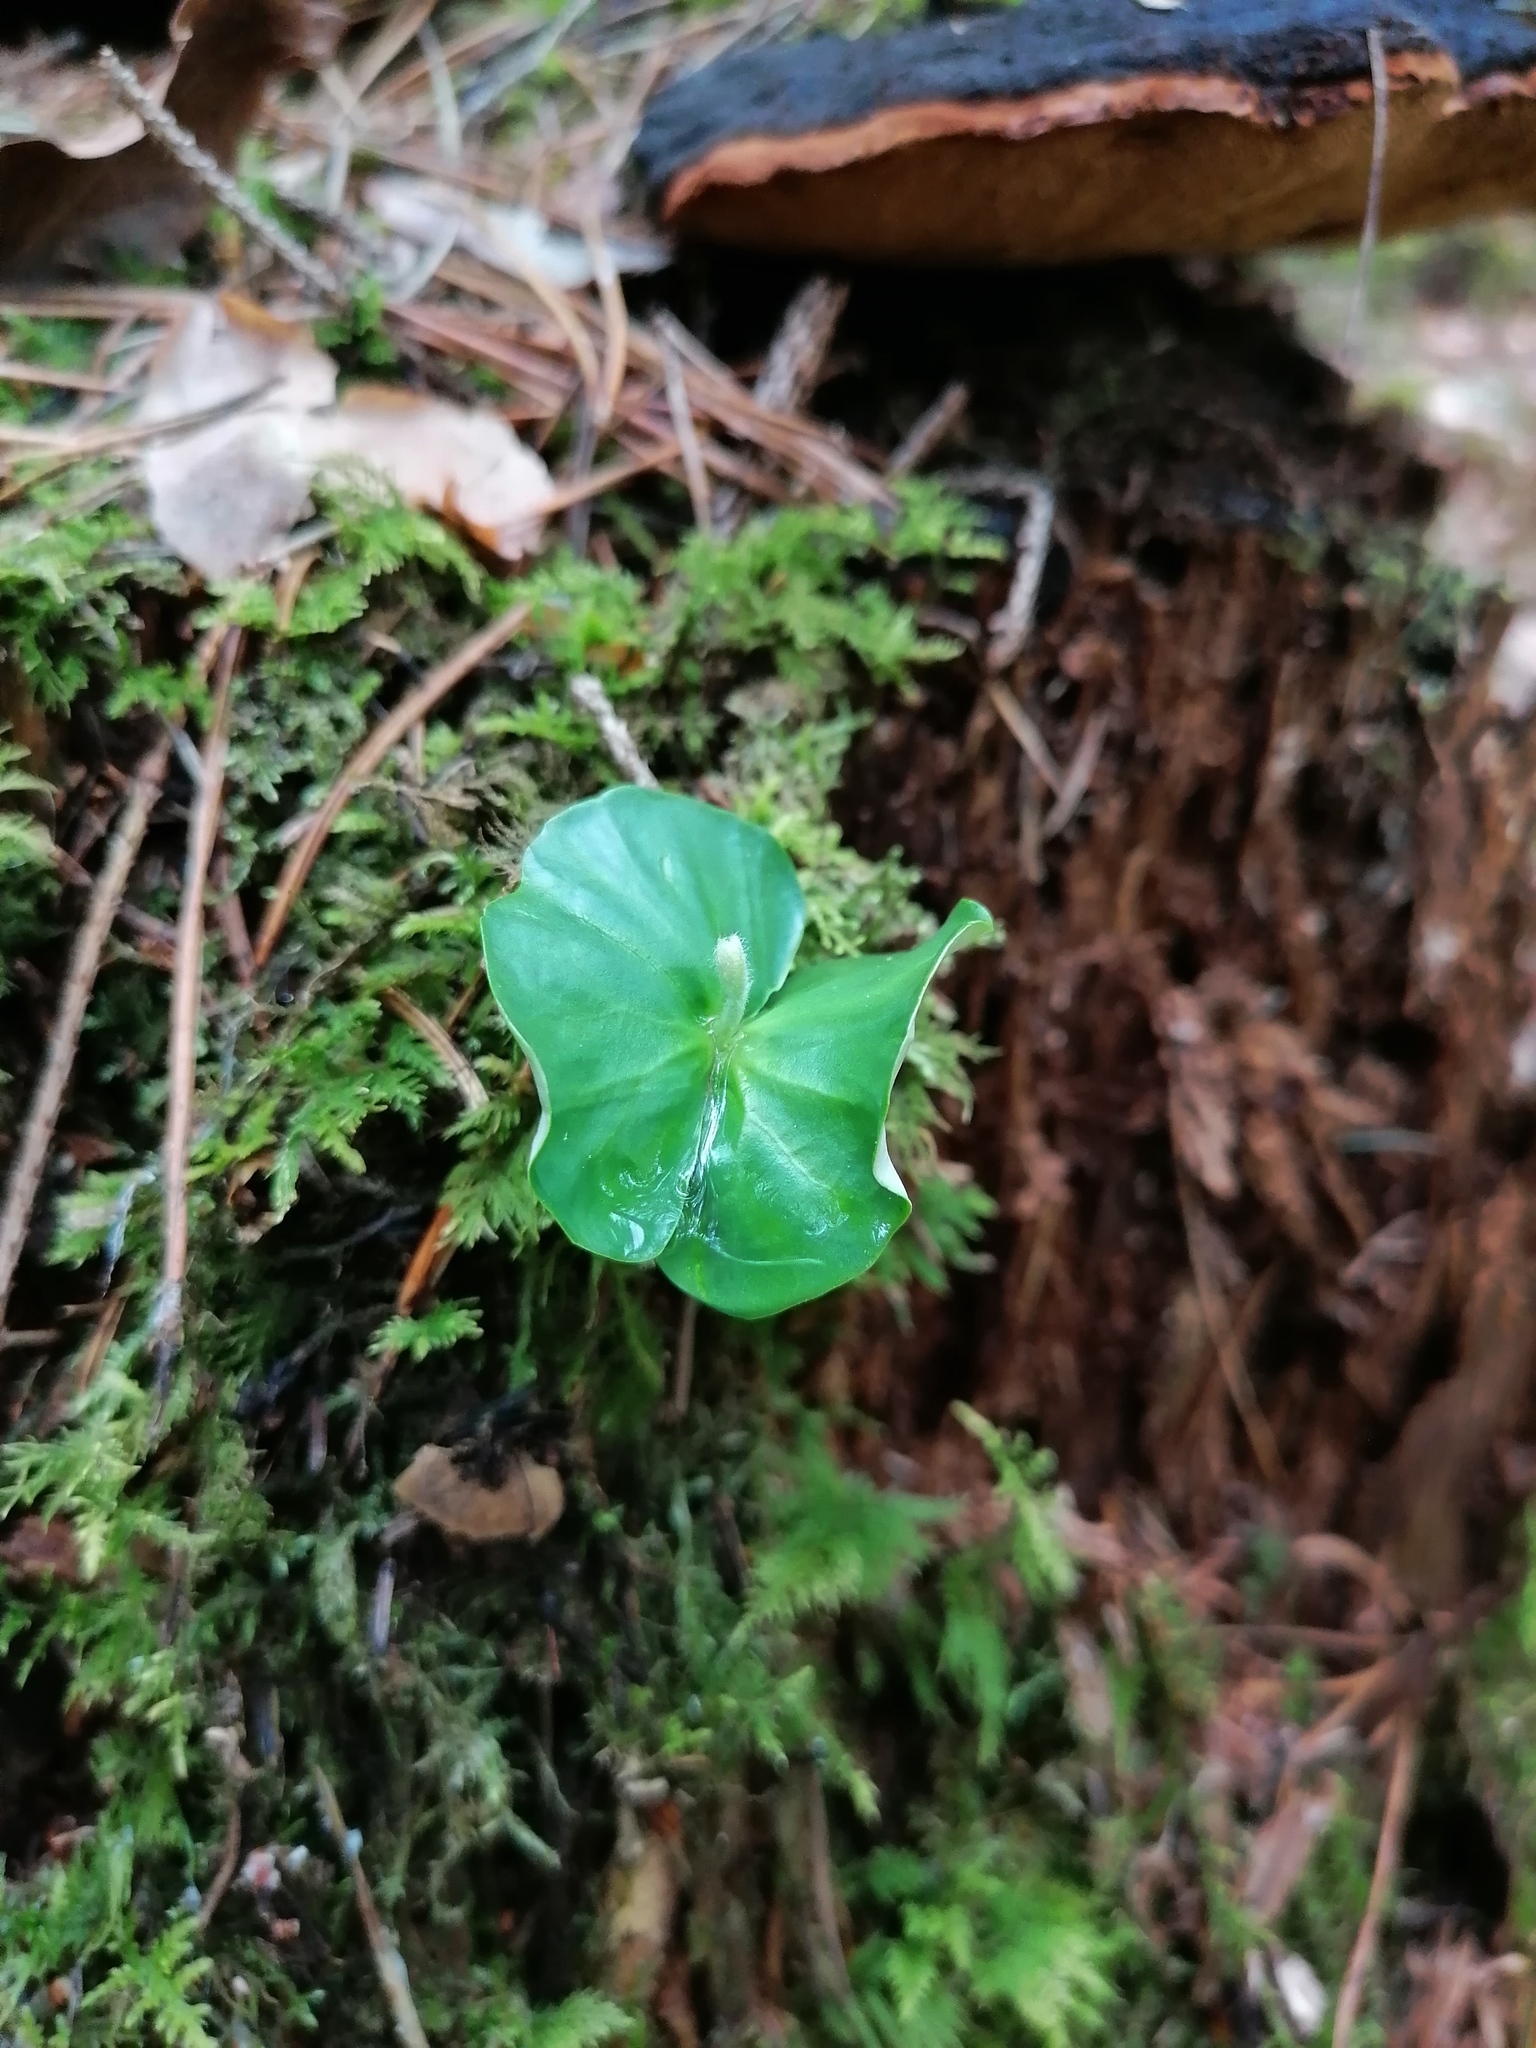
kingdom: Plantae
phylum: Tracheophyta
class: Magnoliopsida
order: Fagales
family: Fagaceae
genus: Fagus
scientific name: Fagus sylvatica
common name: Beech
